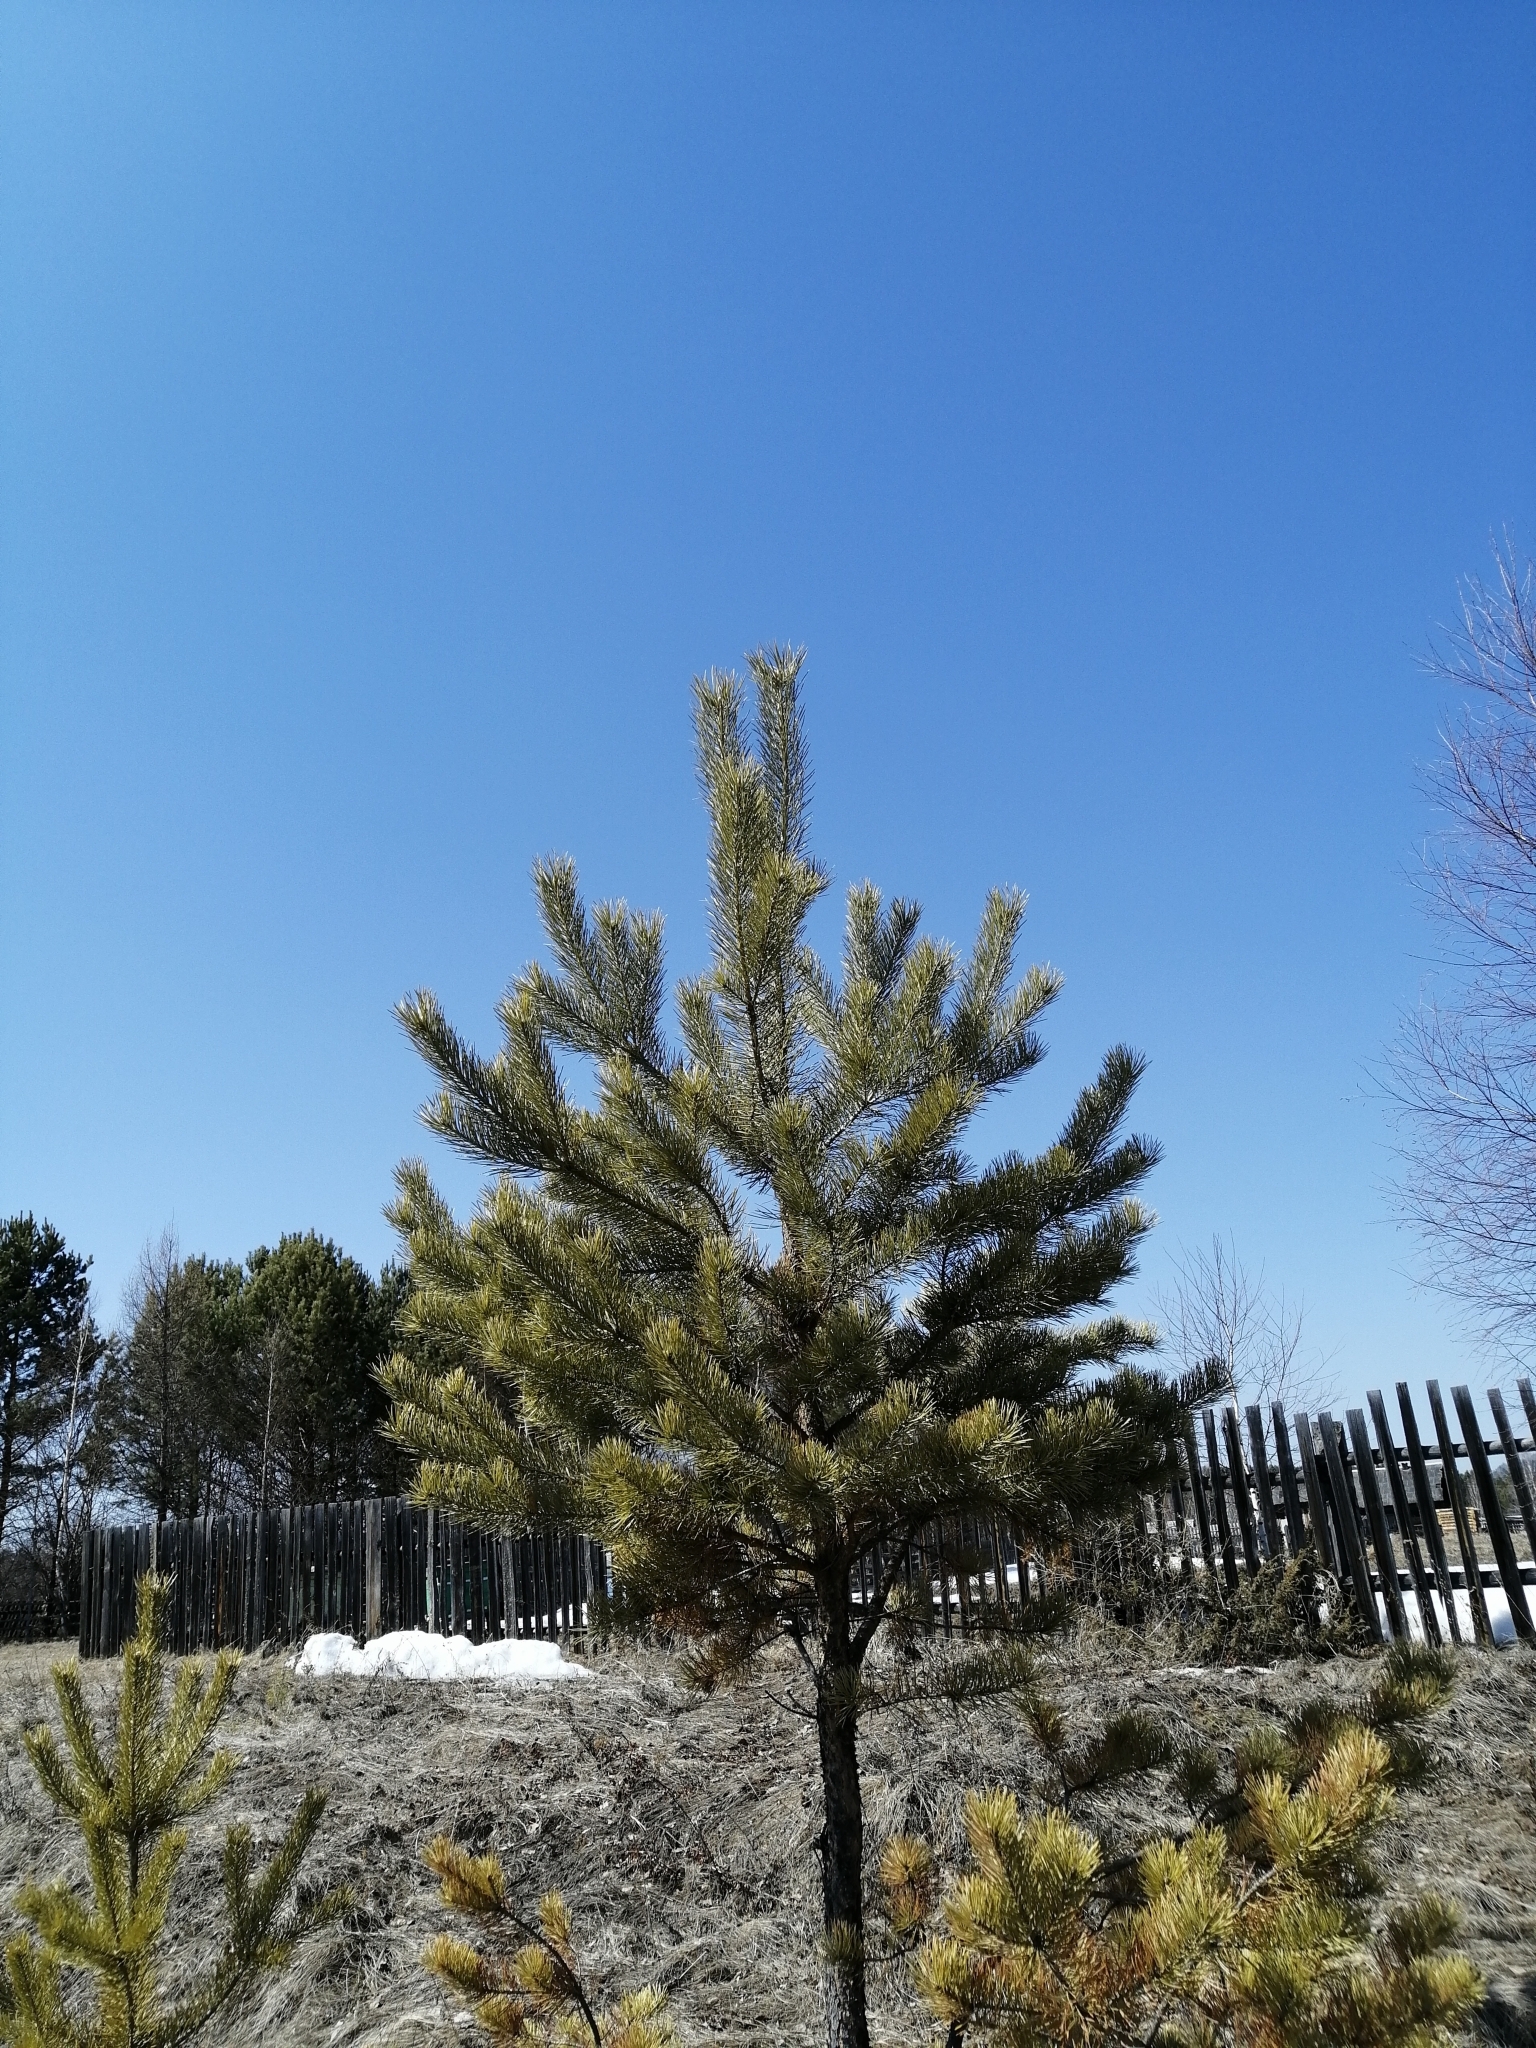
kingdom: Plantae
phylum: Tracheophyta
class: Pinopsida
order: Pinales
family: Pinaceae
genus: Pinus
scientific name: Pinus sylvestris
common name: Scots pine
